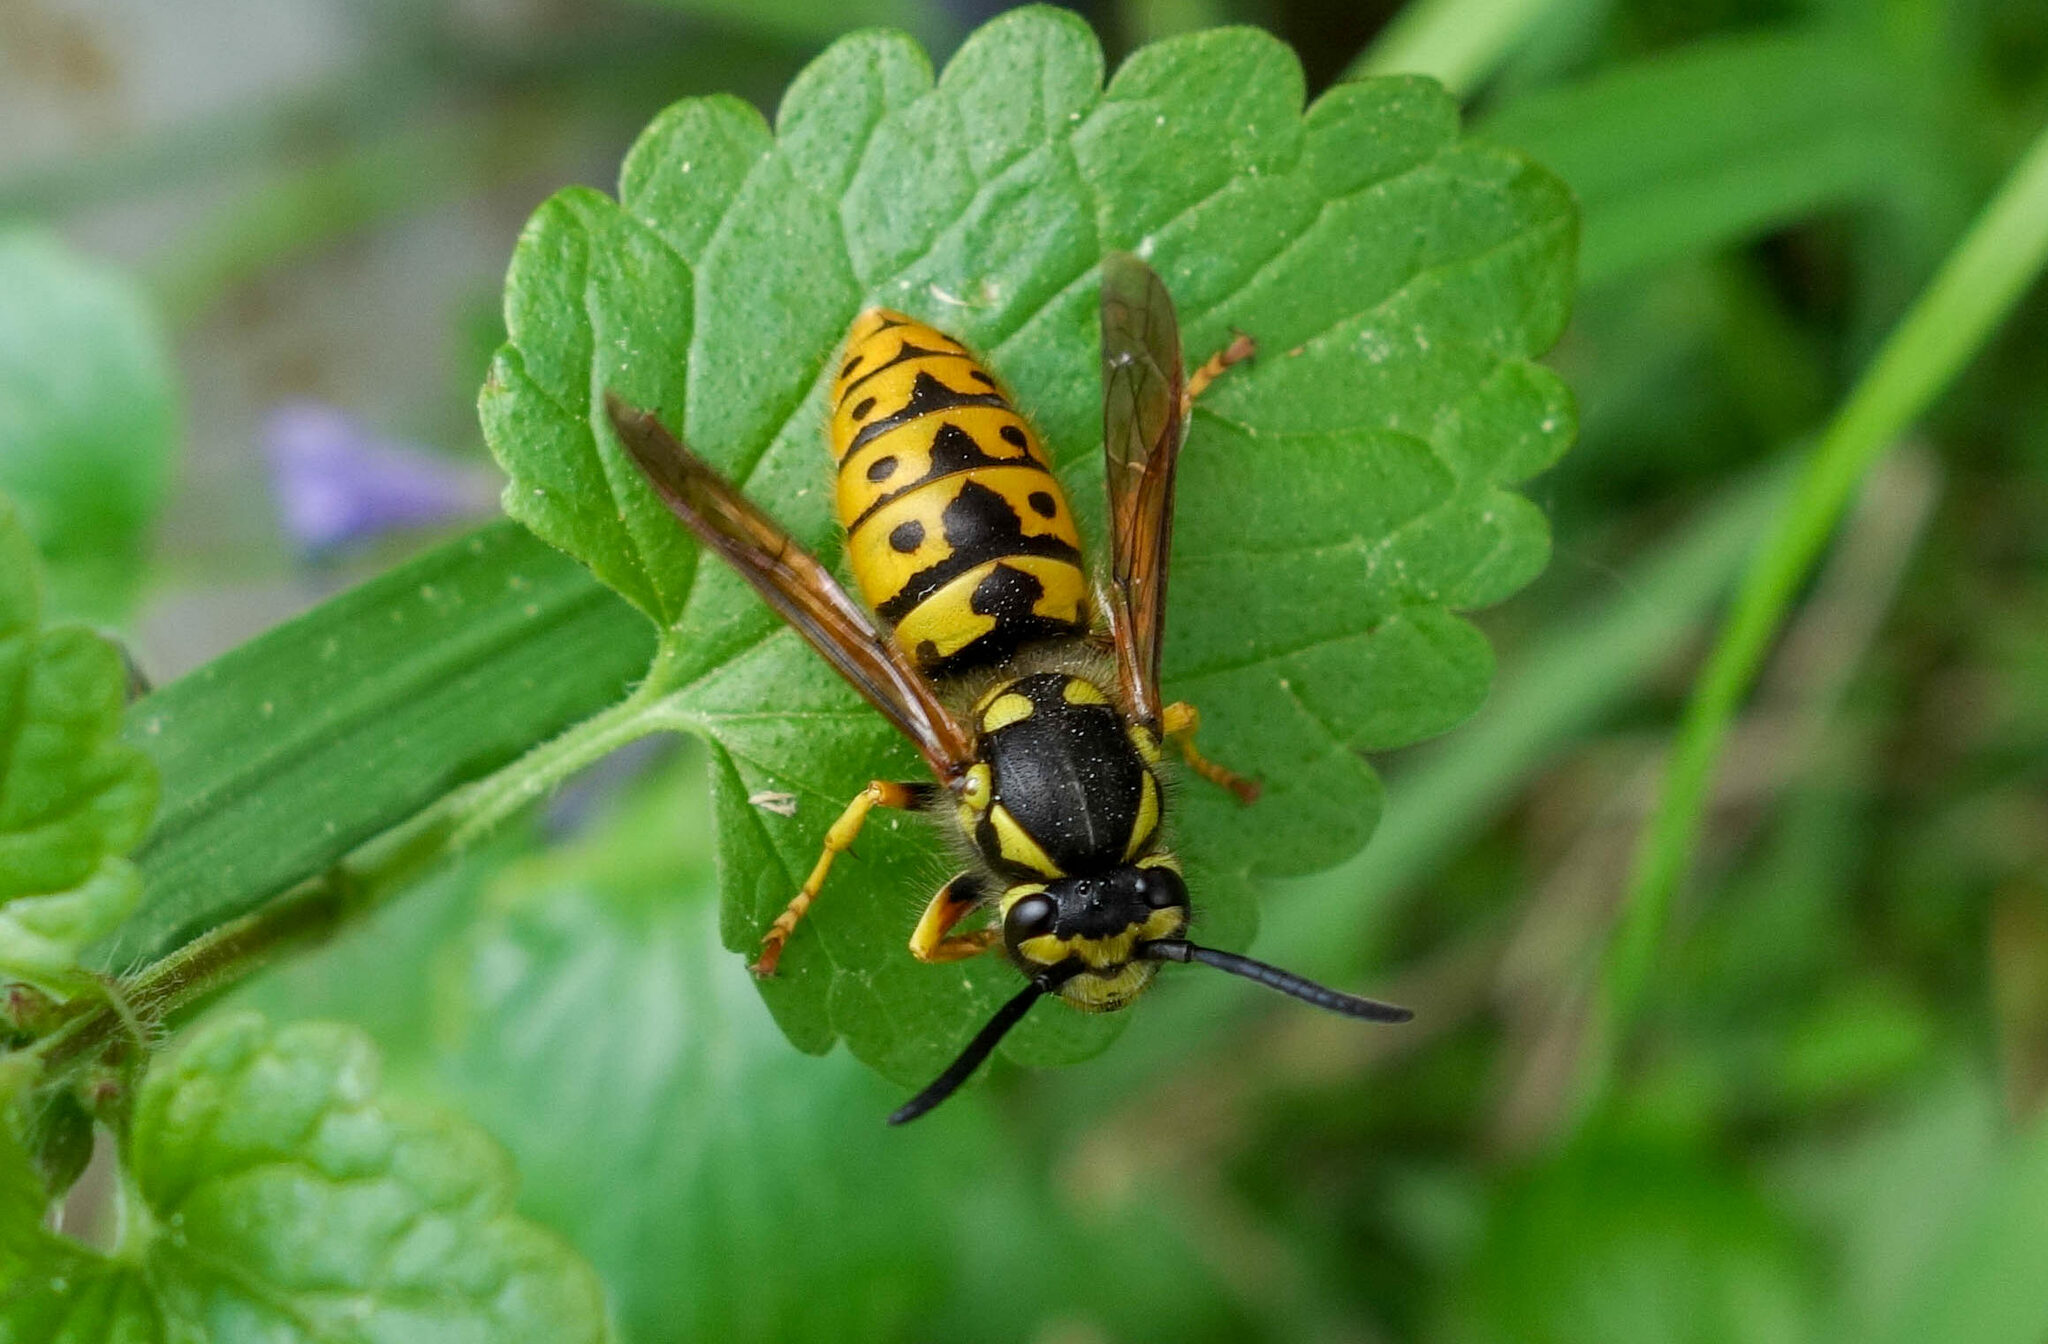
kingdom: Animalia
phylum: Arthropoda
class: Insecta
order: Hymenoptera
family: Vespidae
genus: Vespula
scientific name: Vespula germanica
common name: German wasp
